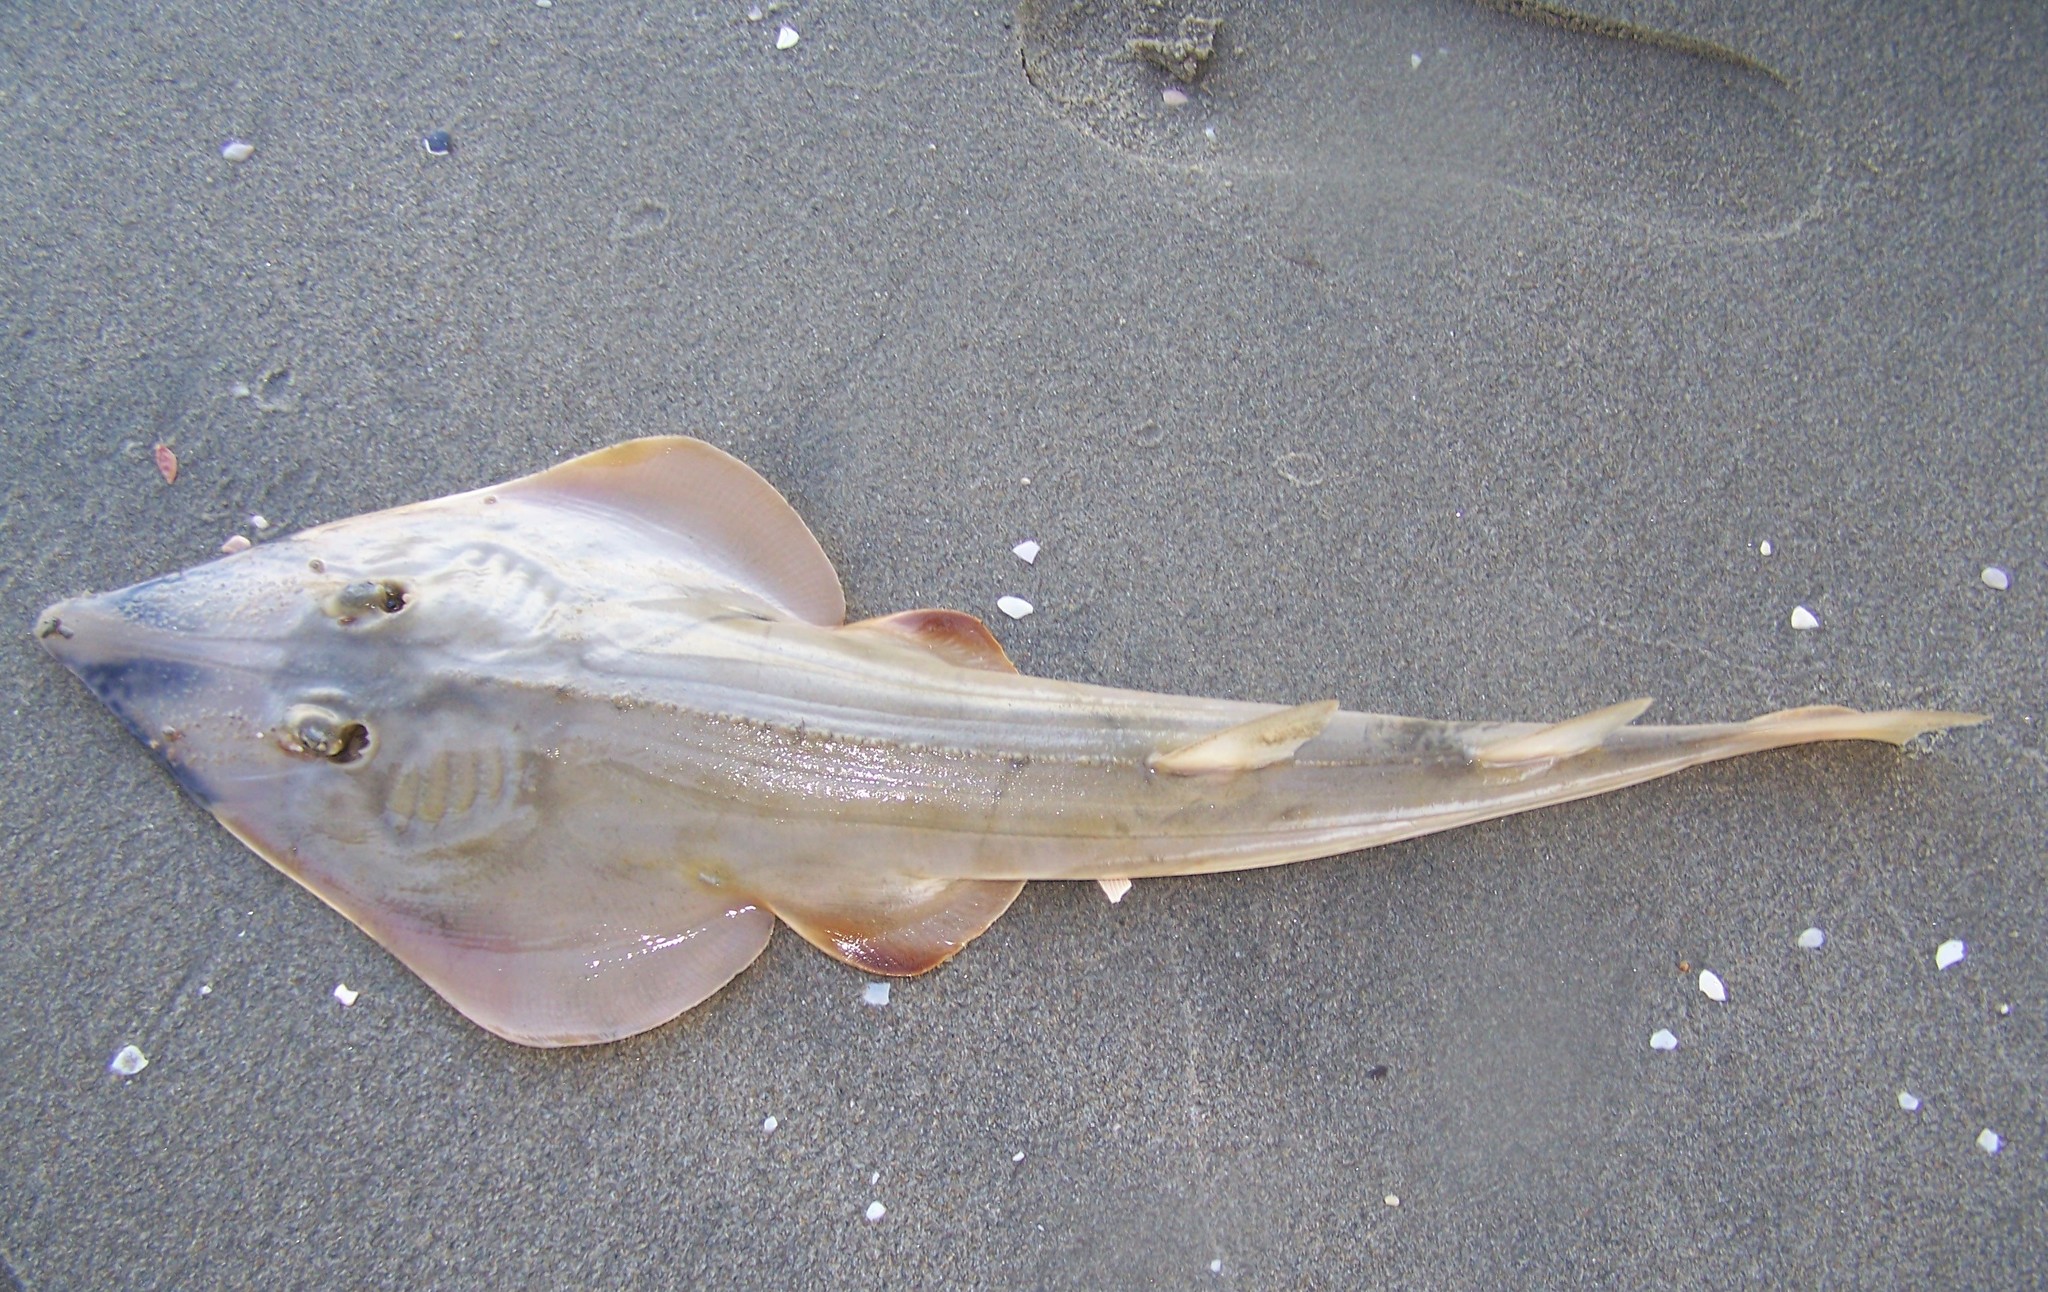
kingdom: Animalia
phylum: Chordata
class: Elasmobranchii
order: Rhinopristiformes
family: Rhinobatidae
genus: Pseudobatos
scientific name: Pseudobatos productus
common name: Shovelnose guitarfish
